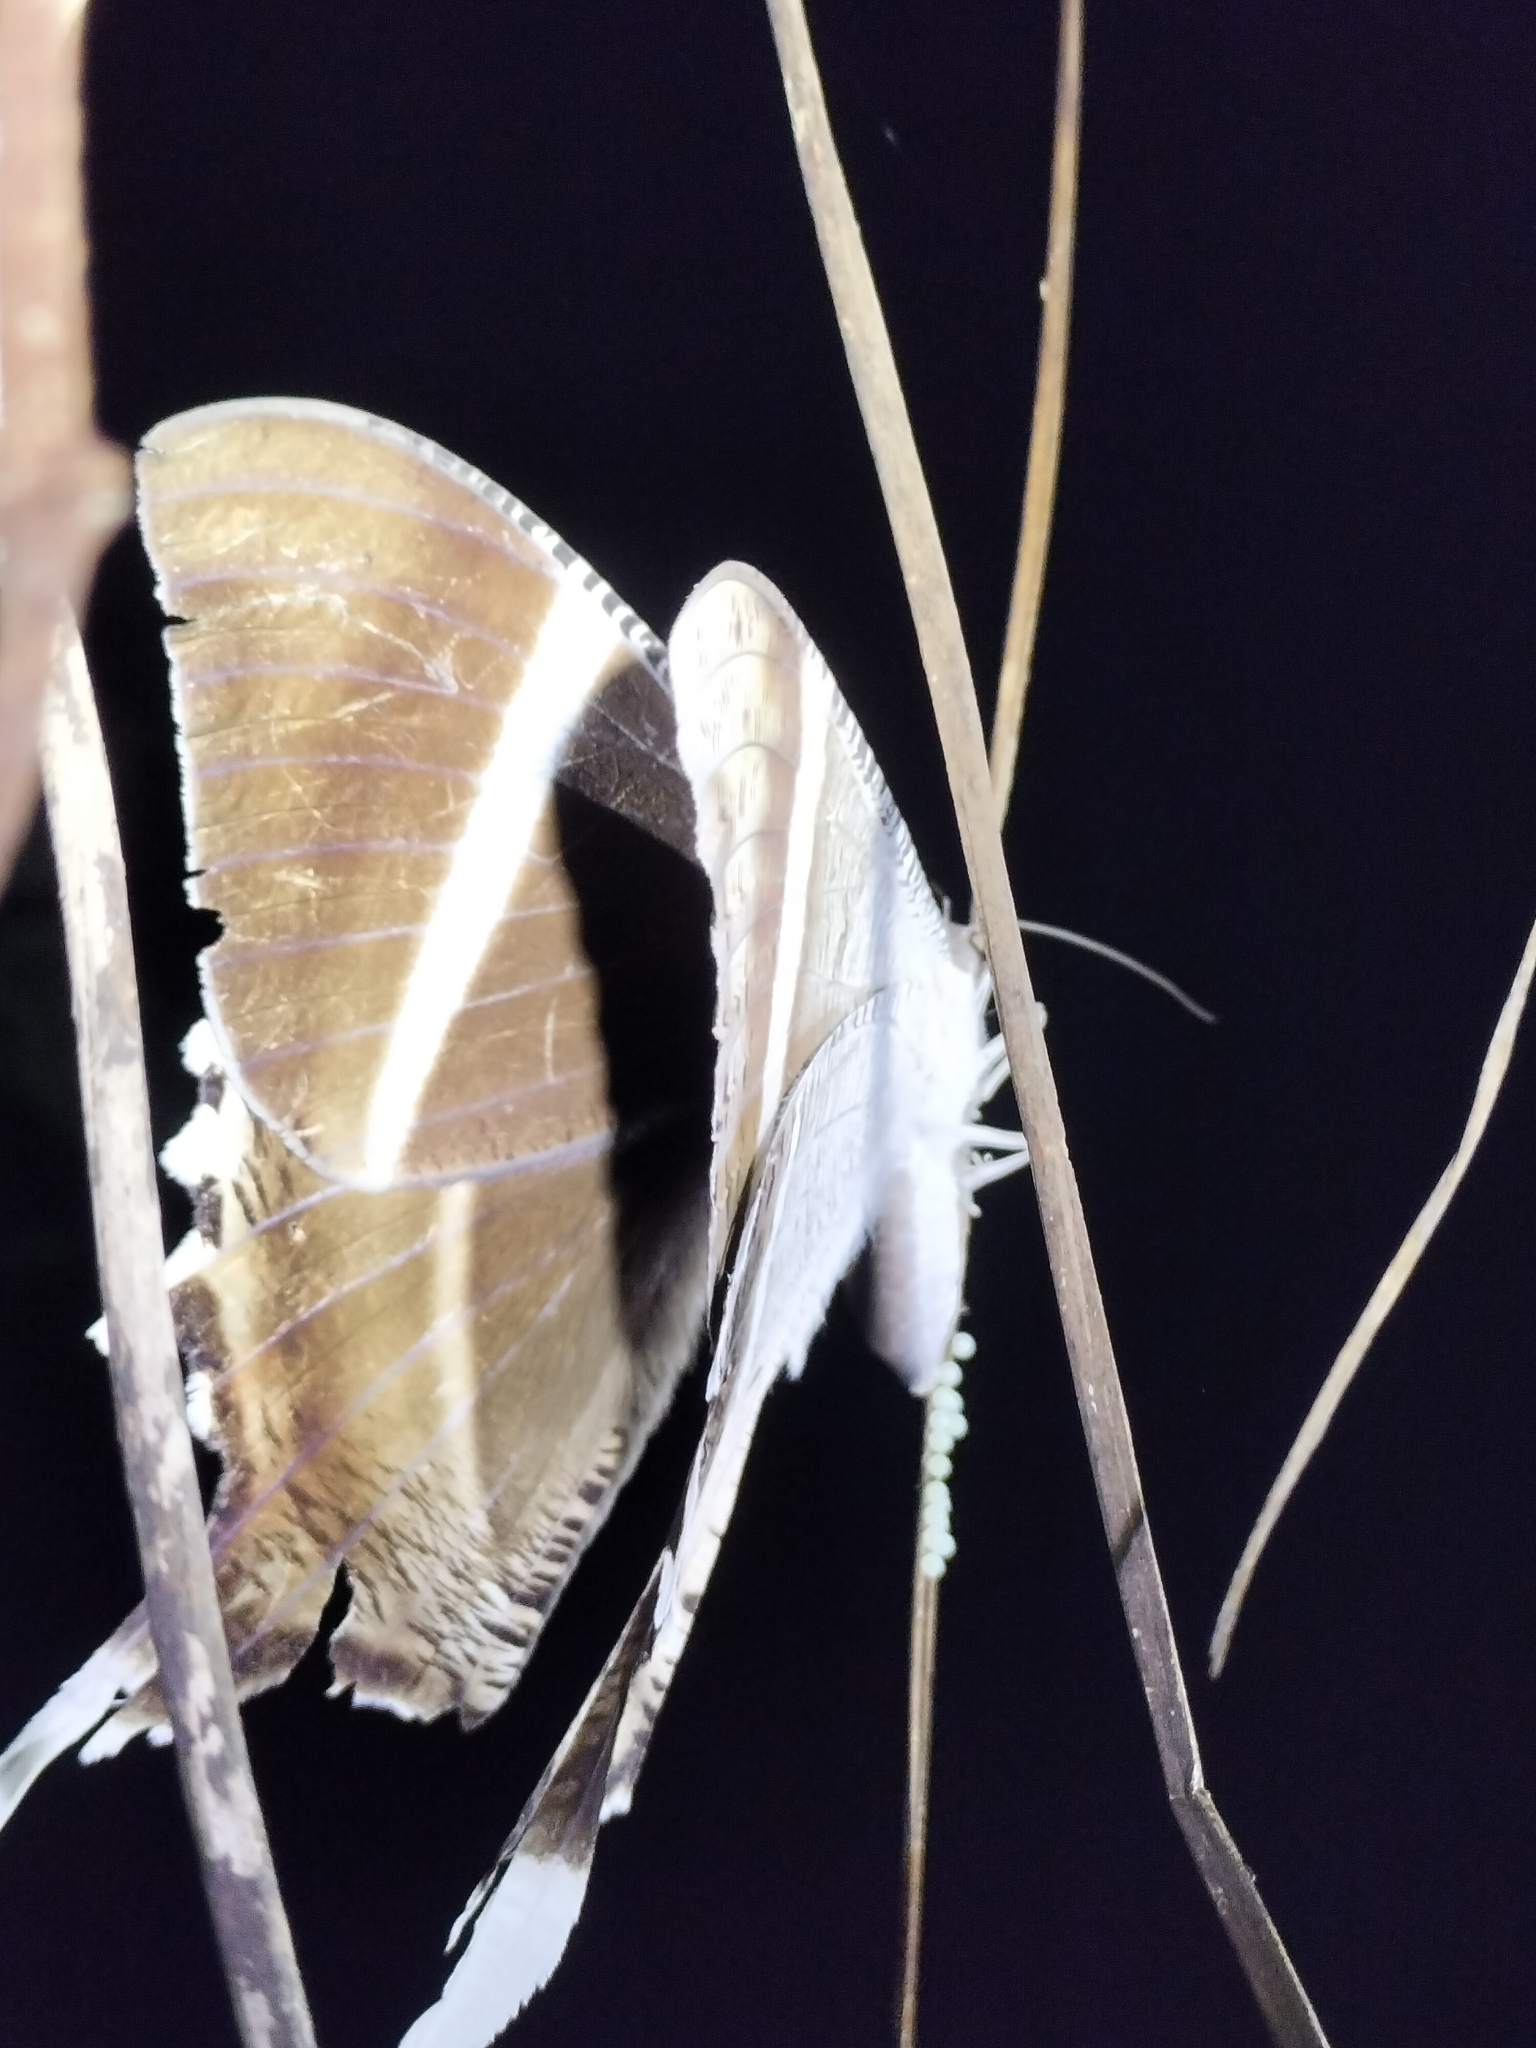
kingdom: Animalia
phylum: Arthropoda
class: Insecta
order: Lepidoptera
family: Uraniidae
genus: Lyssa
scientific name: Lyssa macleayi
